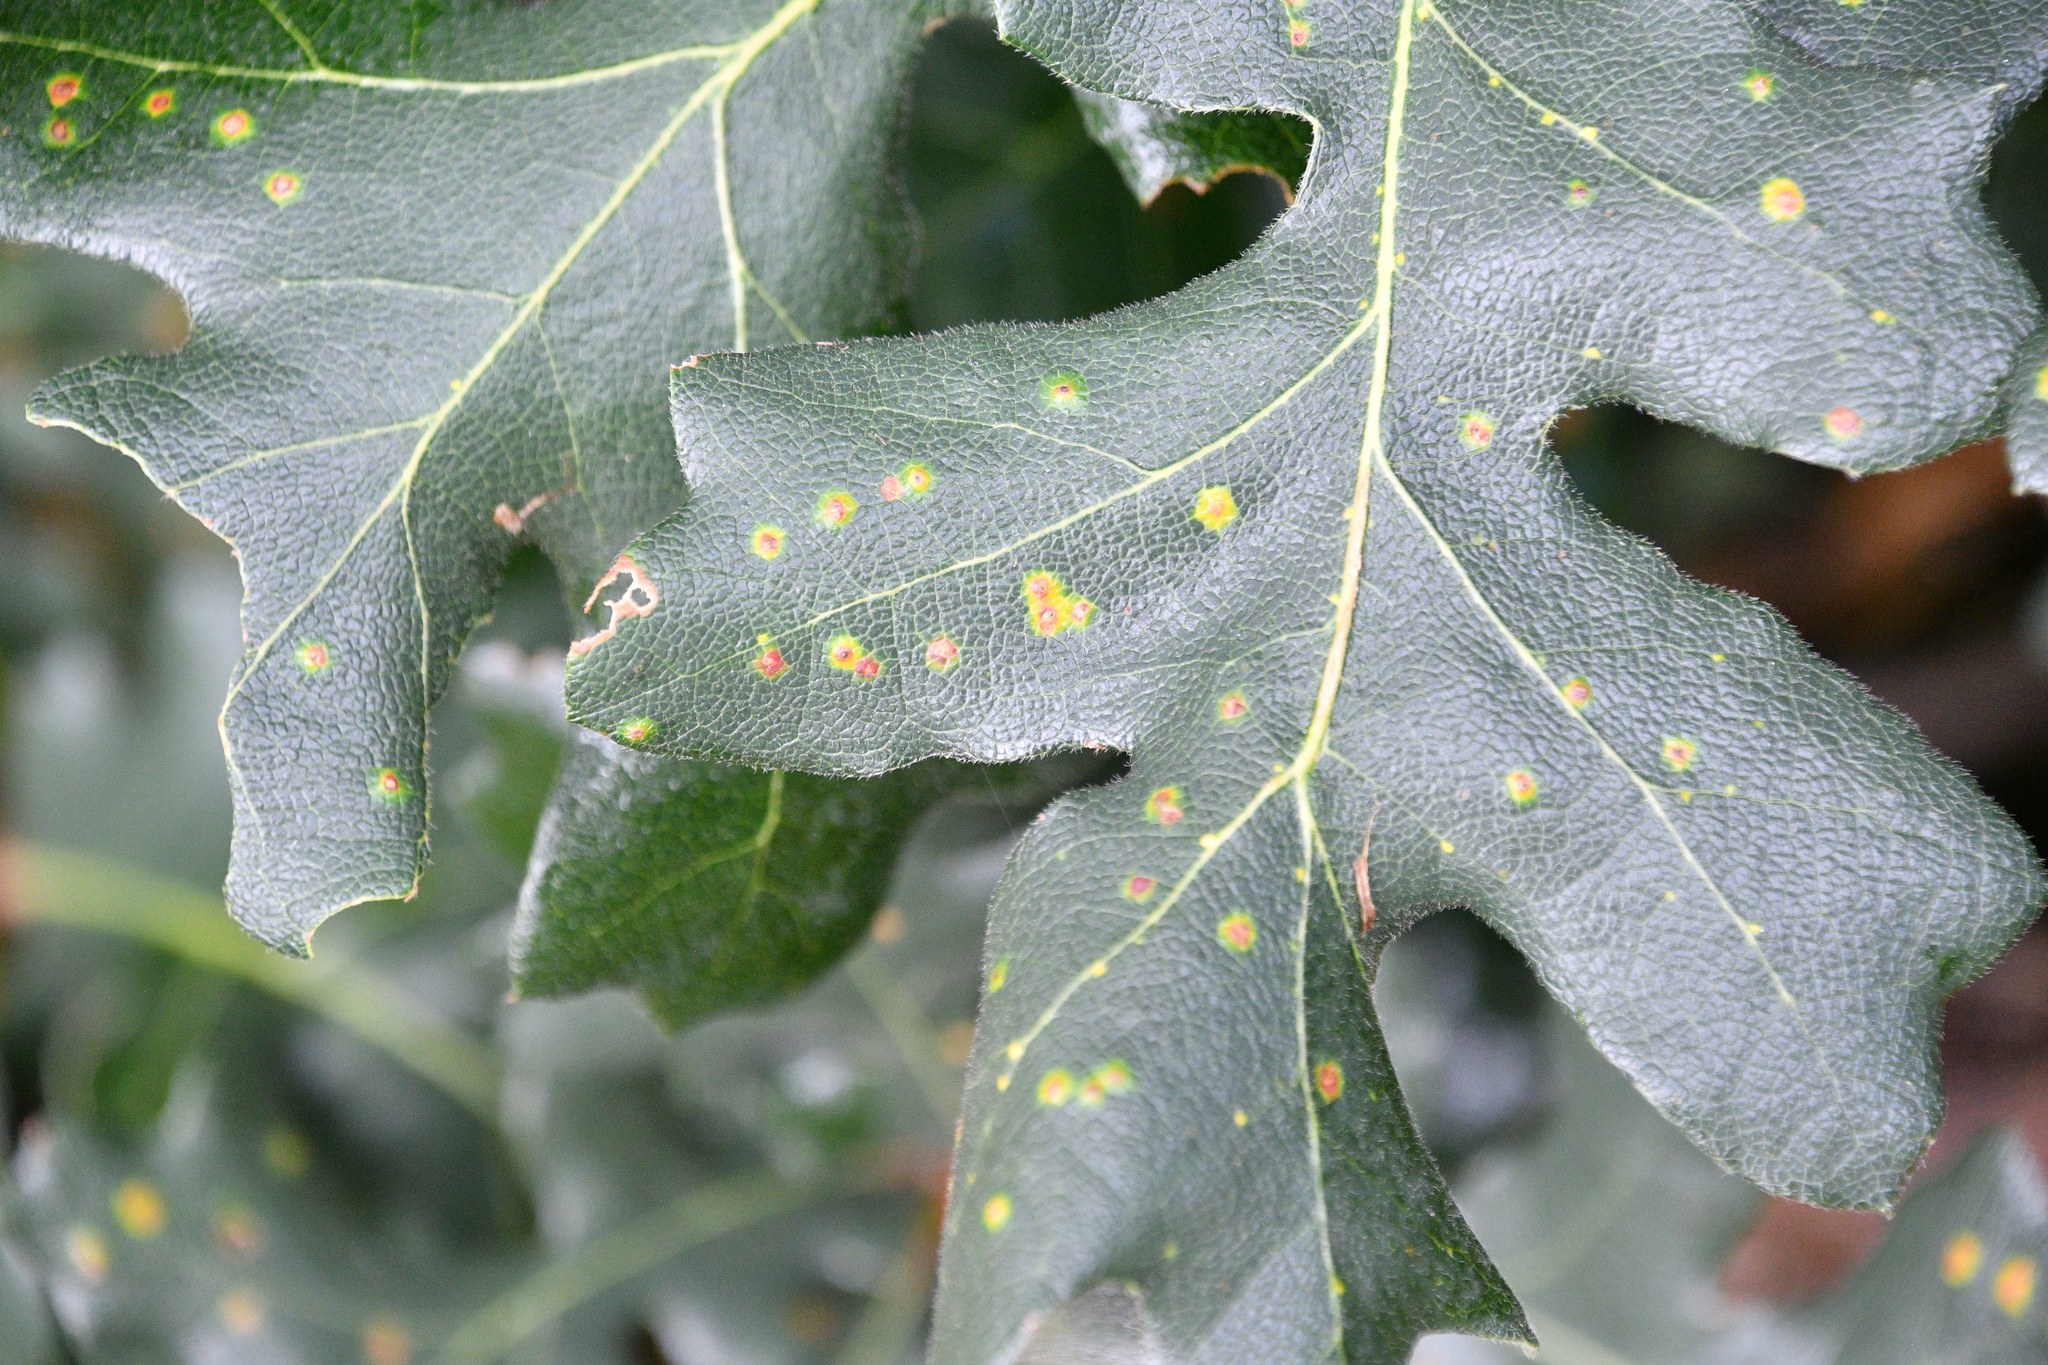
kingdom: Animalia
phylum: Arthropoda
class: Insecta
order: Hymenoptera
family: Cynipidae
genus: Neuroterus
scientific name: Neuroterus saltarius
